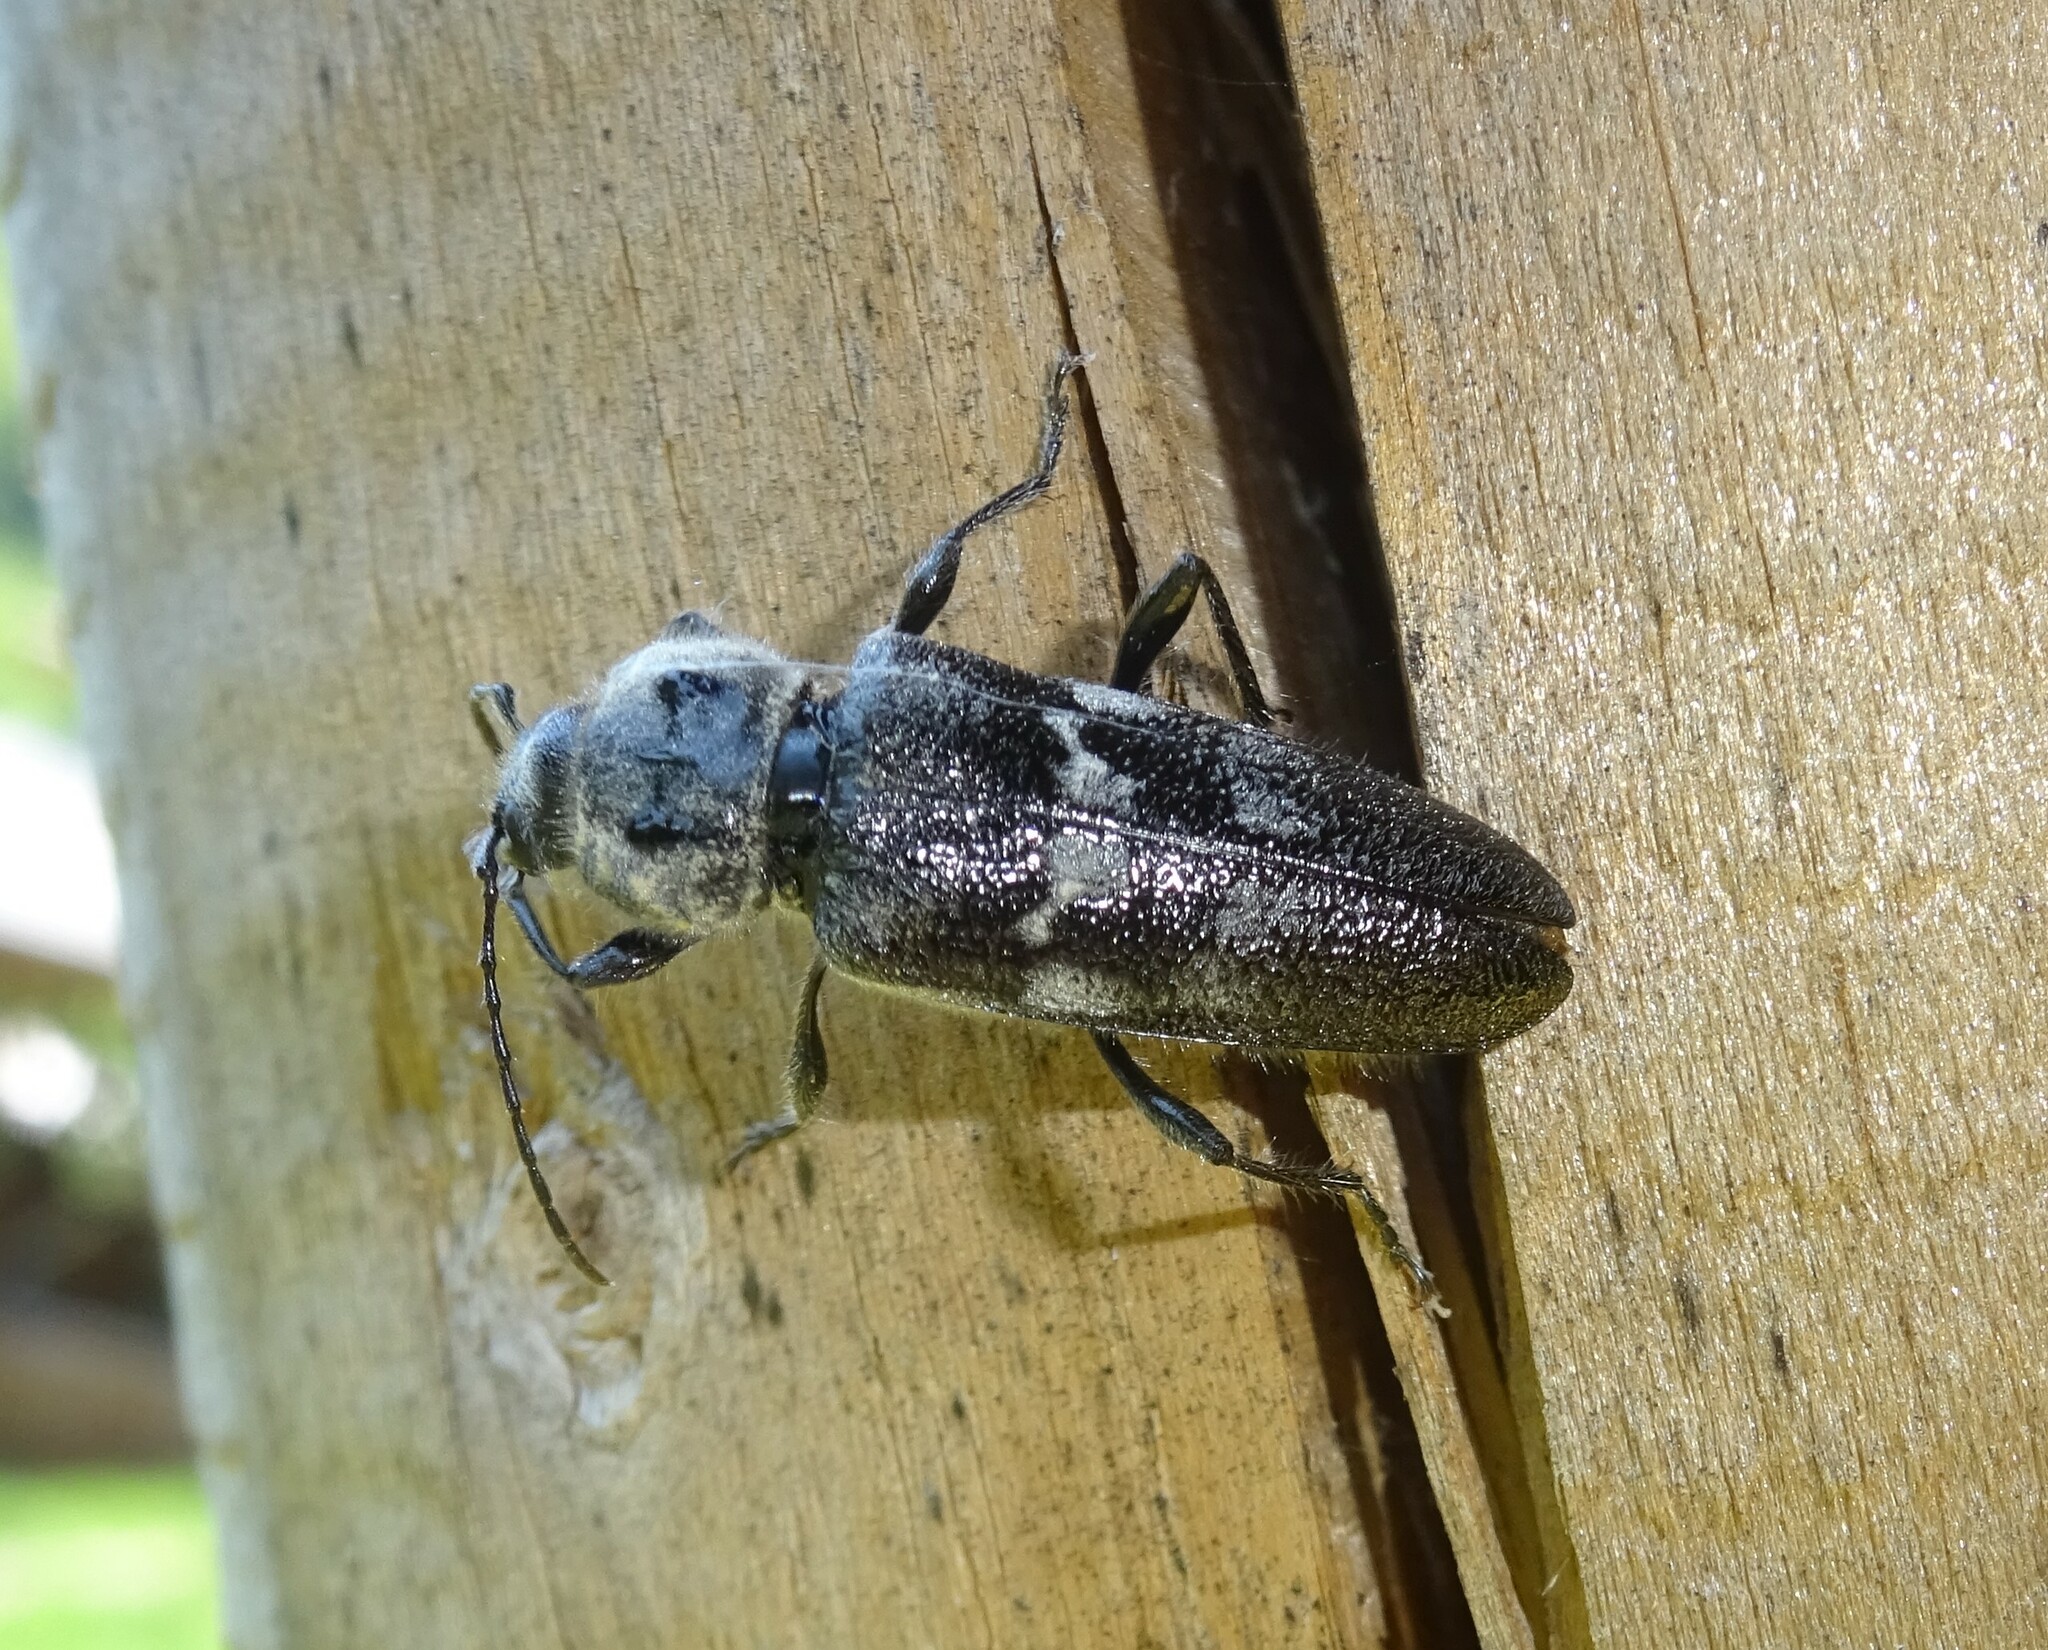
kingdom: Animalia
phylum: Arthropoda
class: Insecta
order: Coleoptera
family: Cerambycidae
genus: Hylotrupes
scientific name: Hylotrupes bajulus
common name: Old house borer
